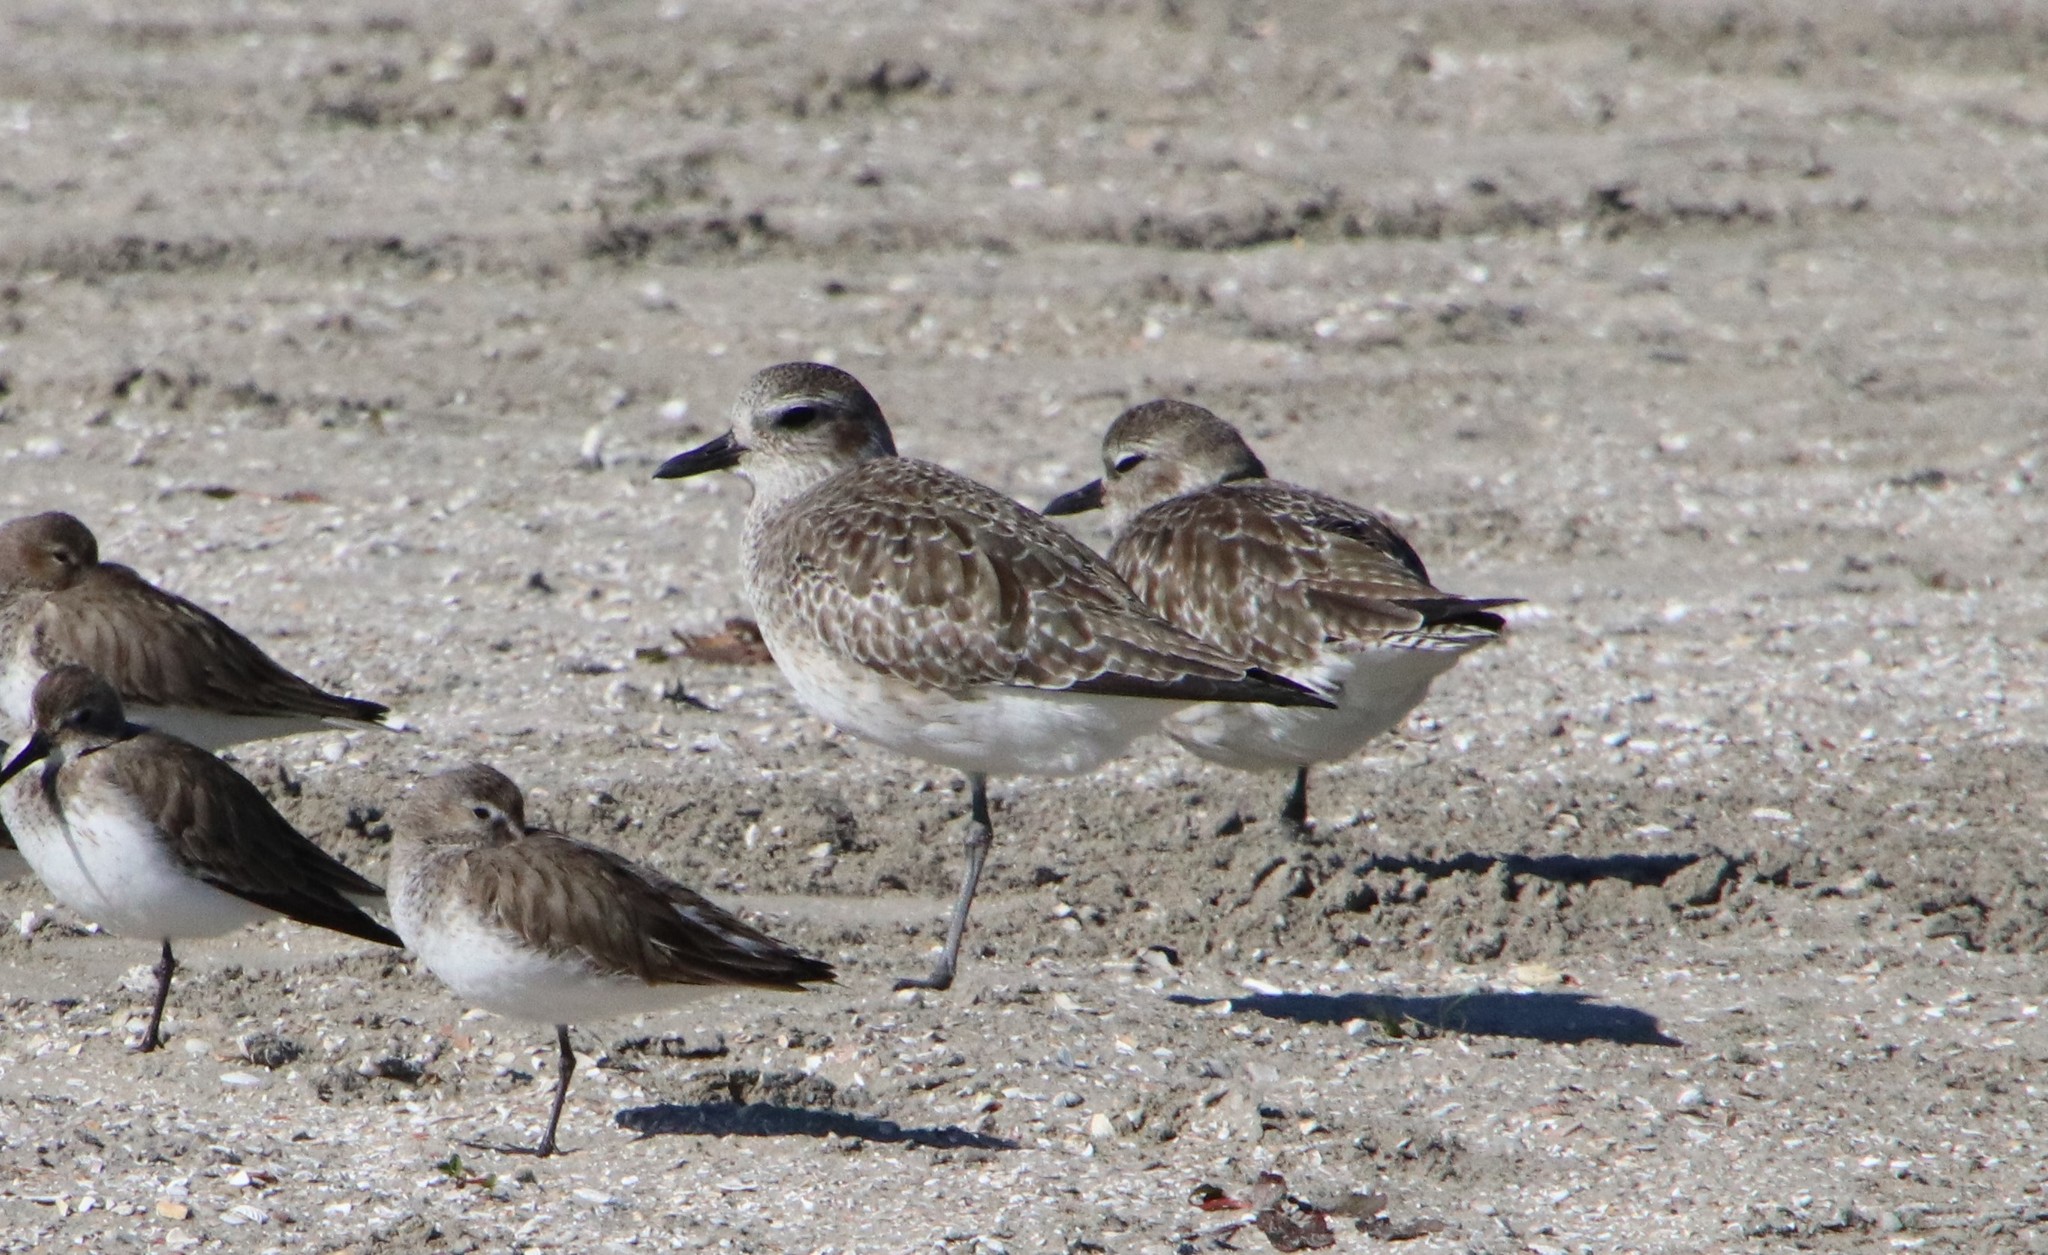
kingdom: Animalia
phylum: Chordata
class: Aves
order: Charadriiformes
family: Charadriidae
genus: Pluvialis
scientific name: Pluvialis squatarola
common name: Grey plover
